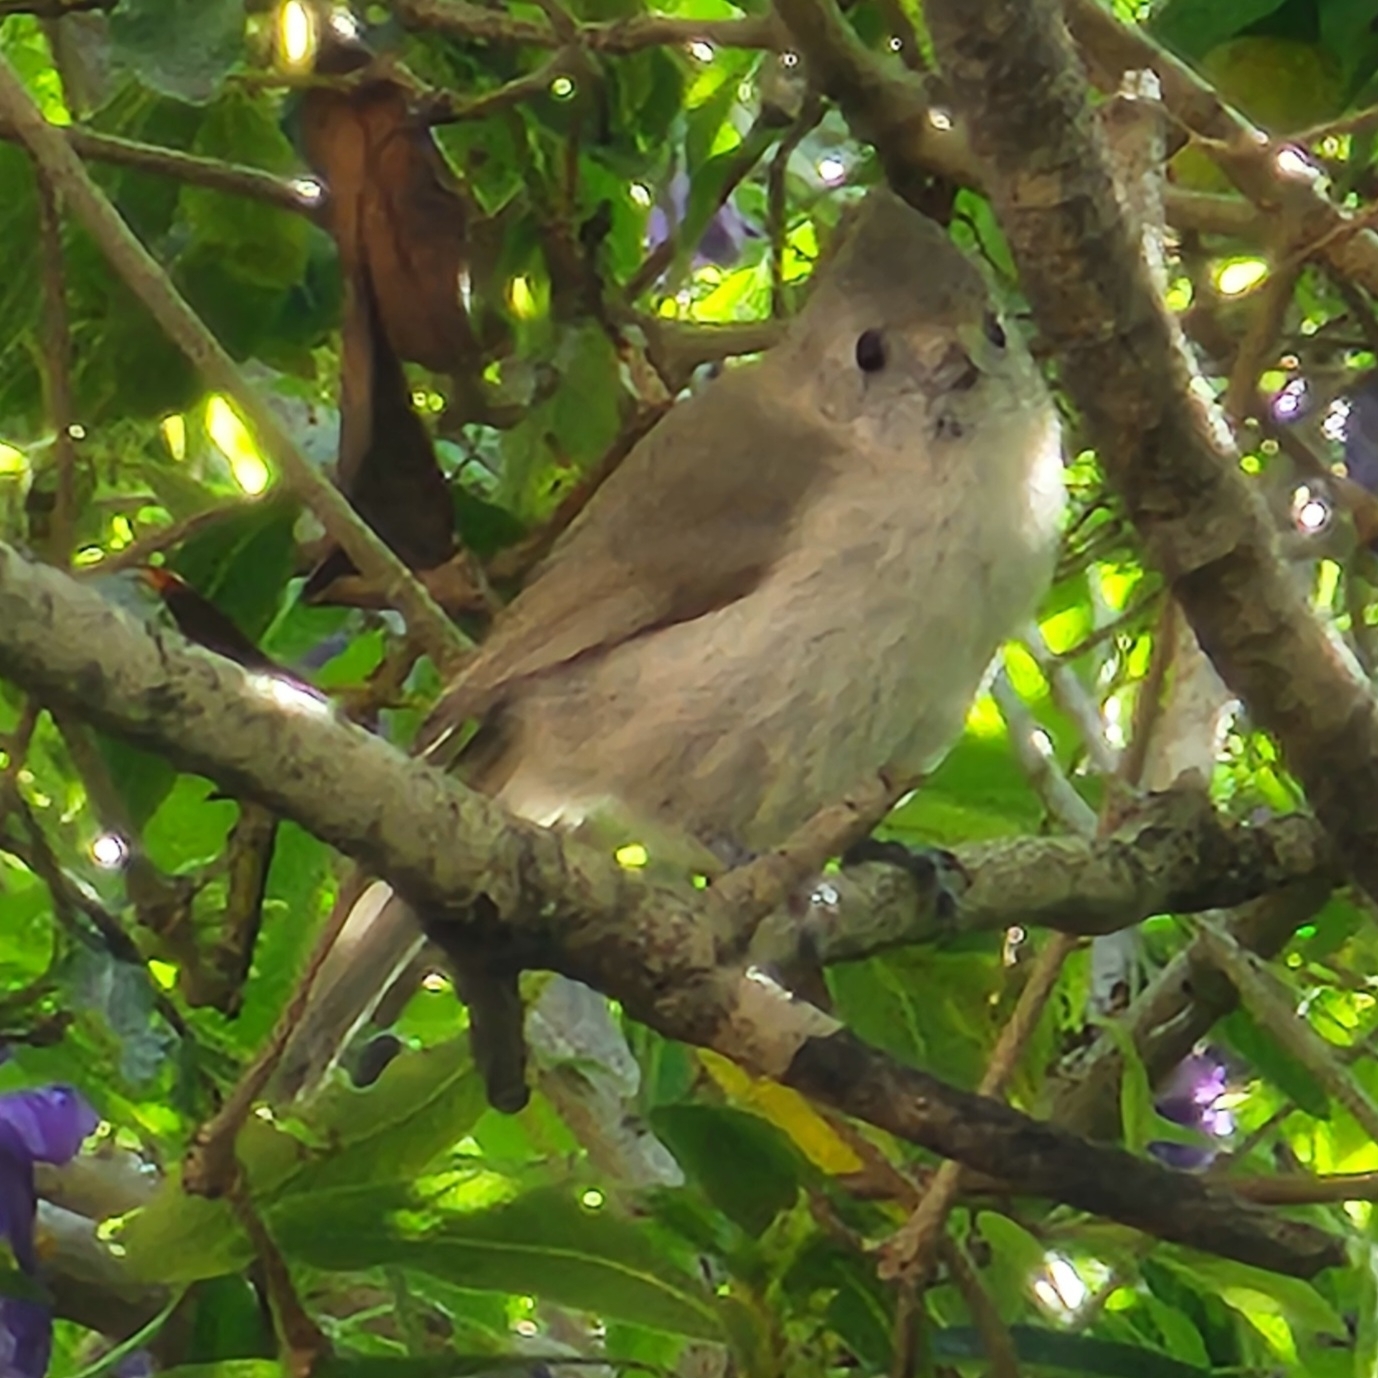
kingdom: Animalia
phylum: Chordata
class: Aves
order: Passeriformes
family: Paridae
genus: Baeolophus
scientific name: Baeolophus inornatus
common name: Oak titmouse
